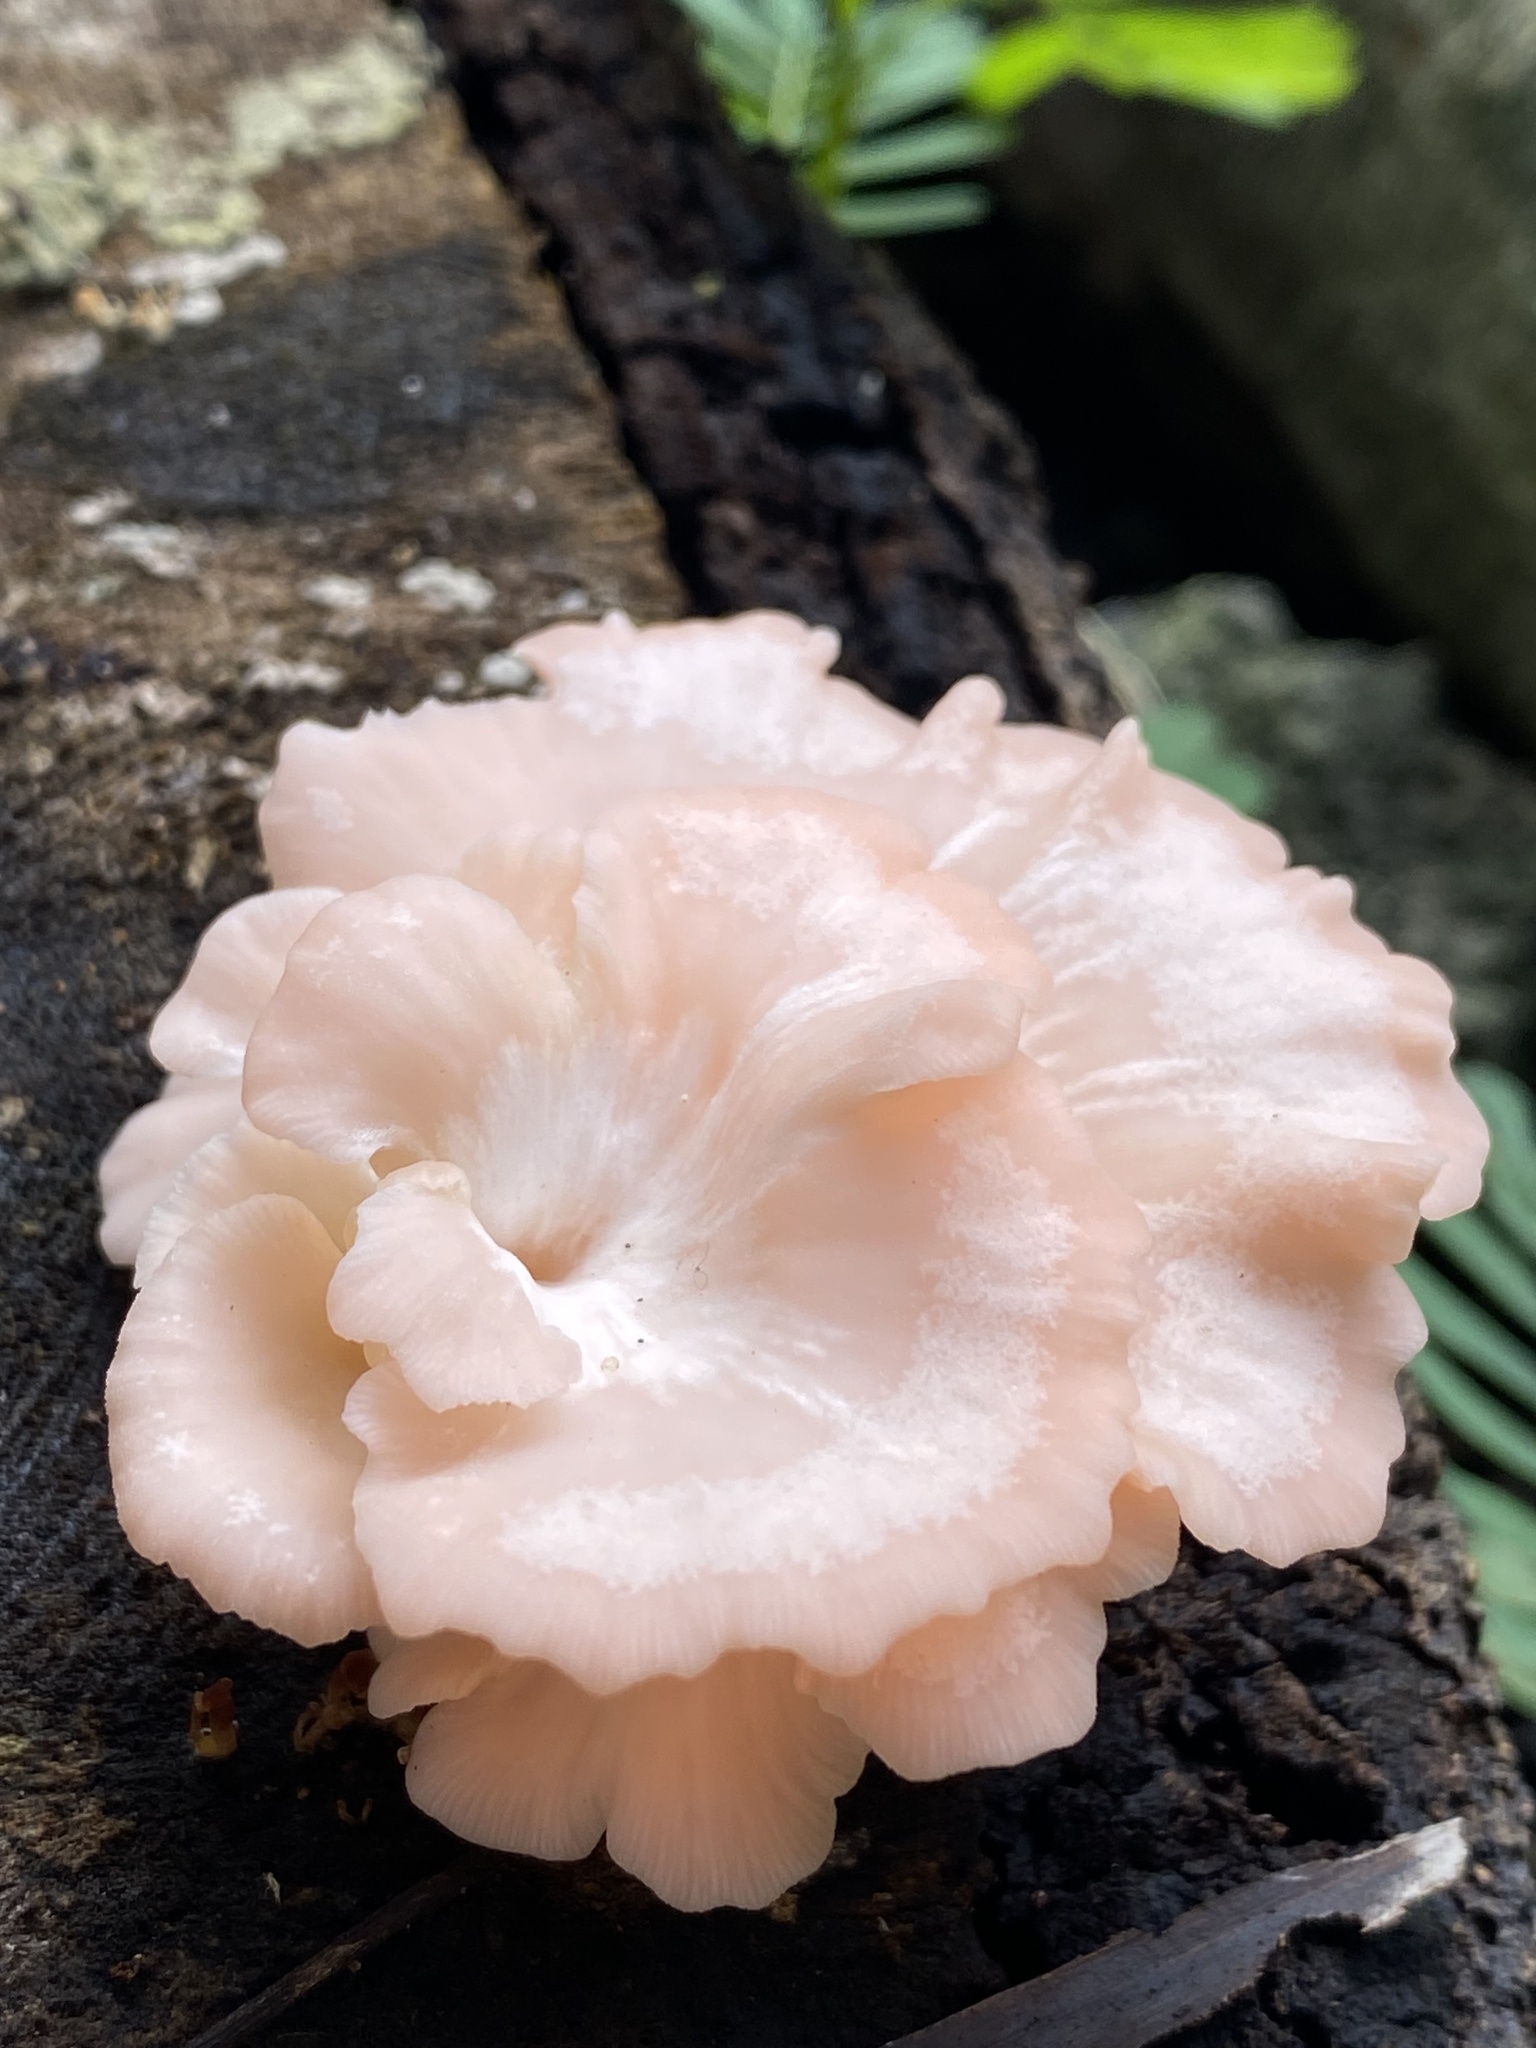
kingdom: Fungi
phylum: Basidiomycota
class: Agaricomycetes
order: Agaricales
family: Pleurotaceae
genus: Pleurotus
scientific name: Pleurotus djamor
